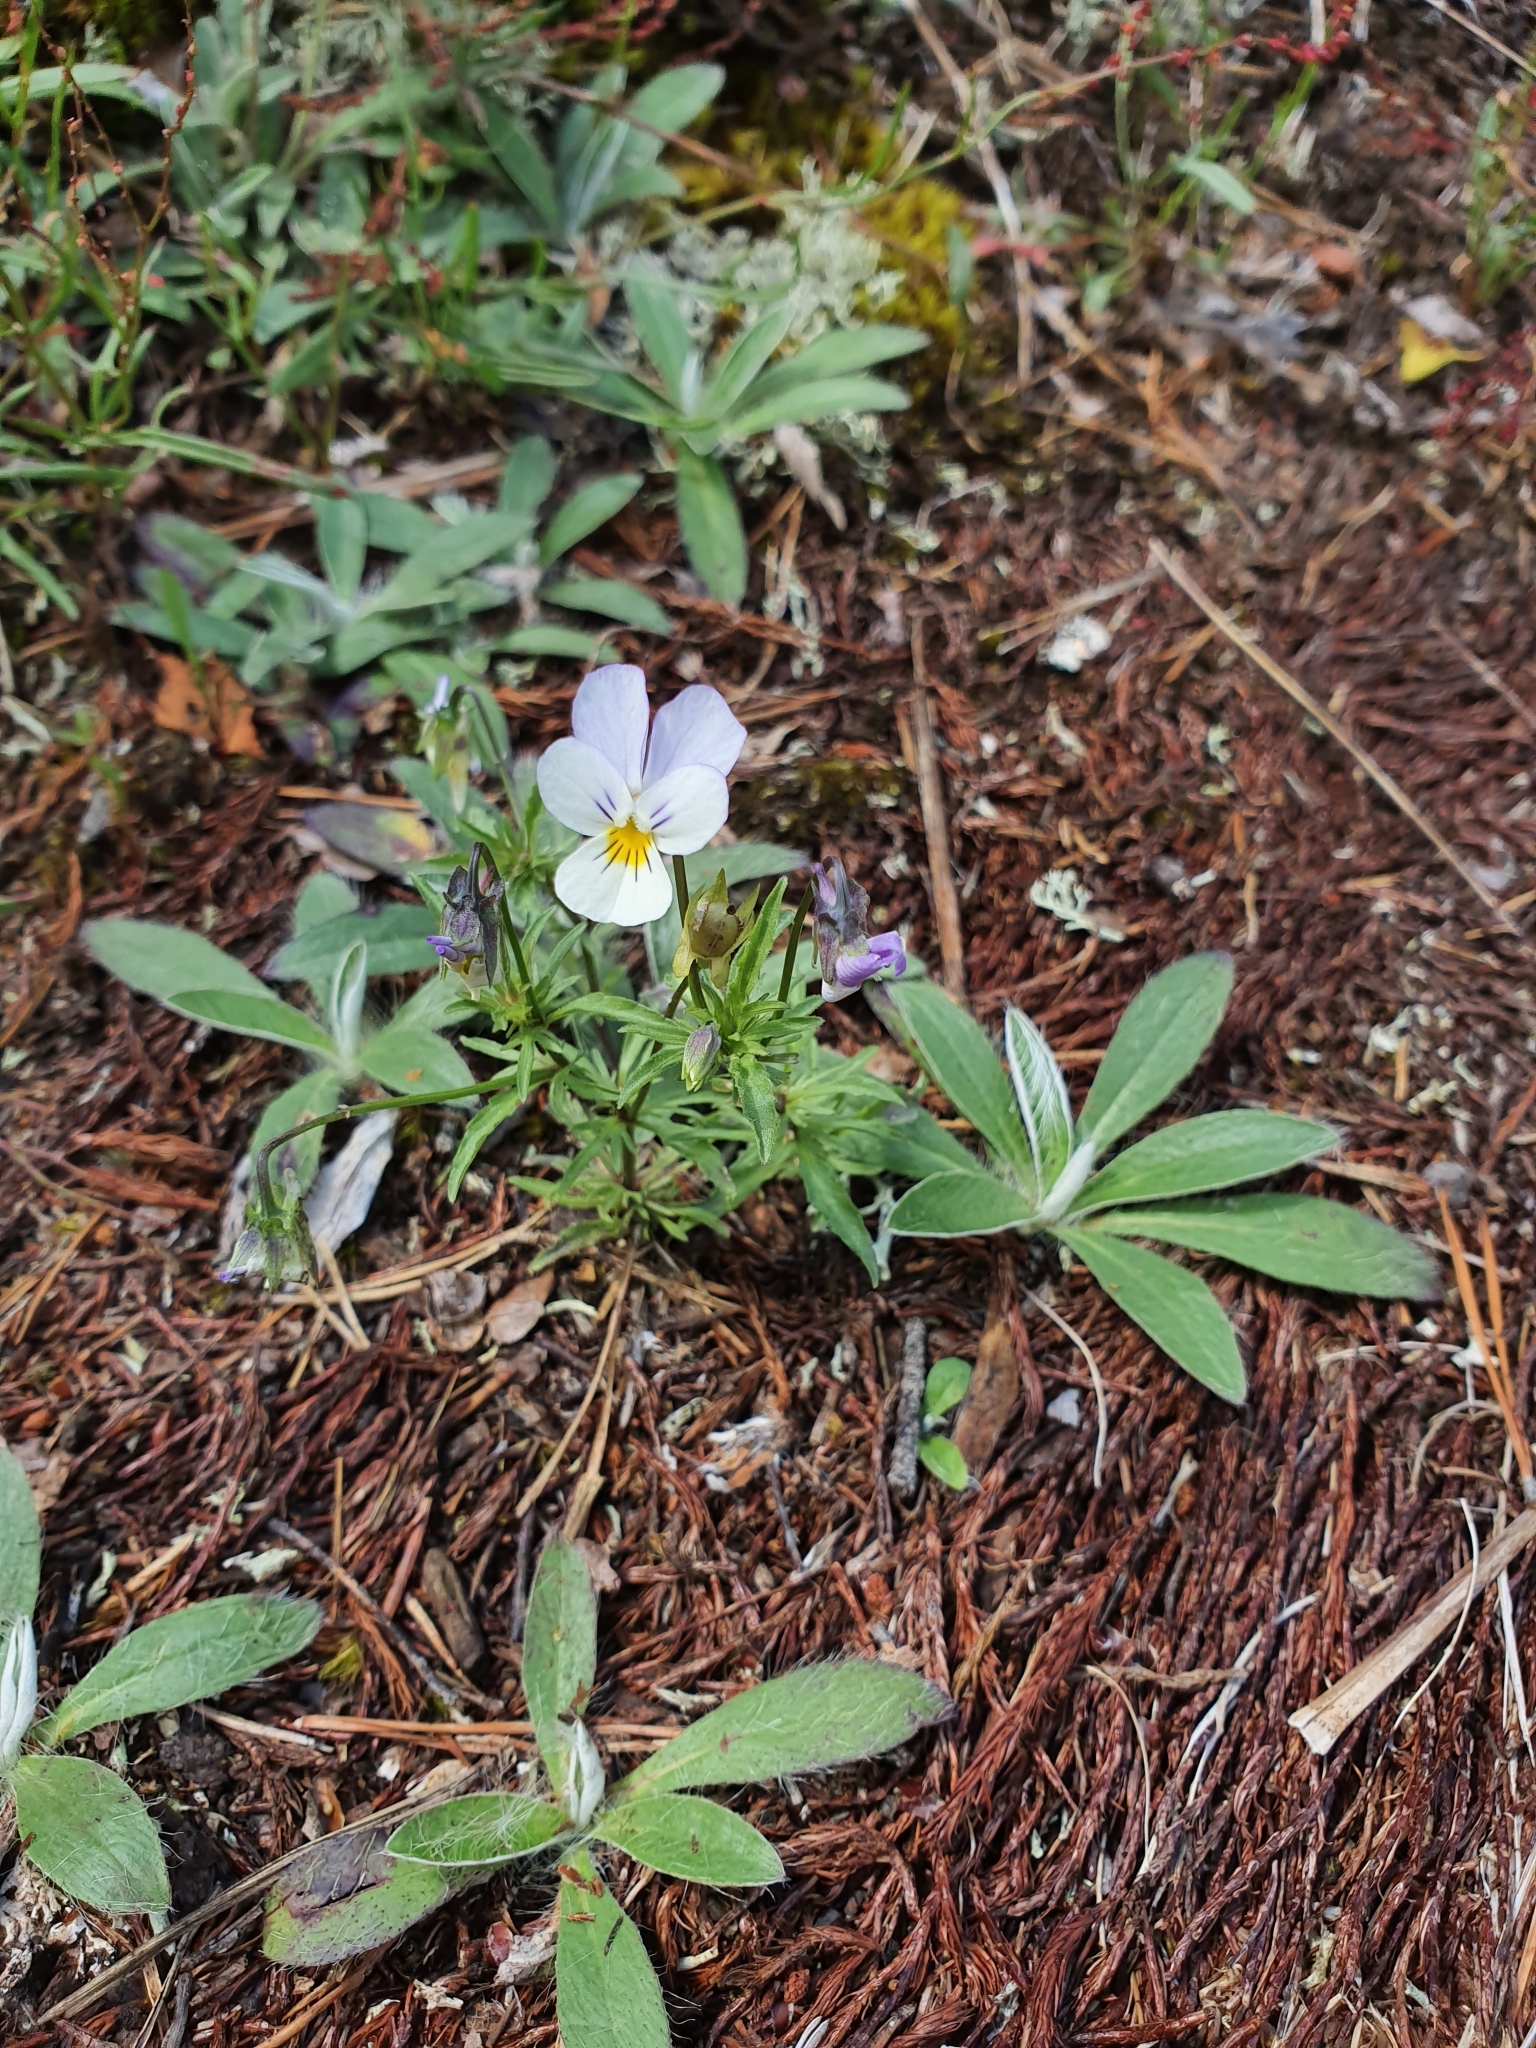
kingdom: Plantae
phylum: Tracheophyta
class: Magnoliopsida
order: Malpighiales
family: Violaceae
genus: Viola
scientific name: Viola tricolor
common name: Pansy
